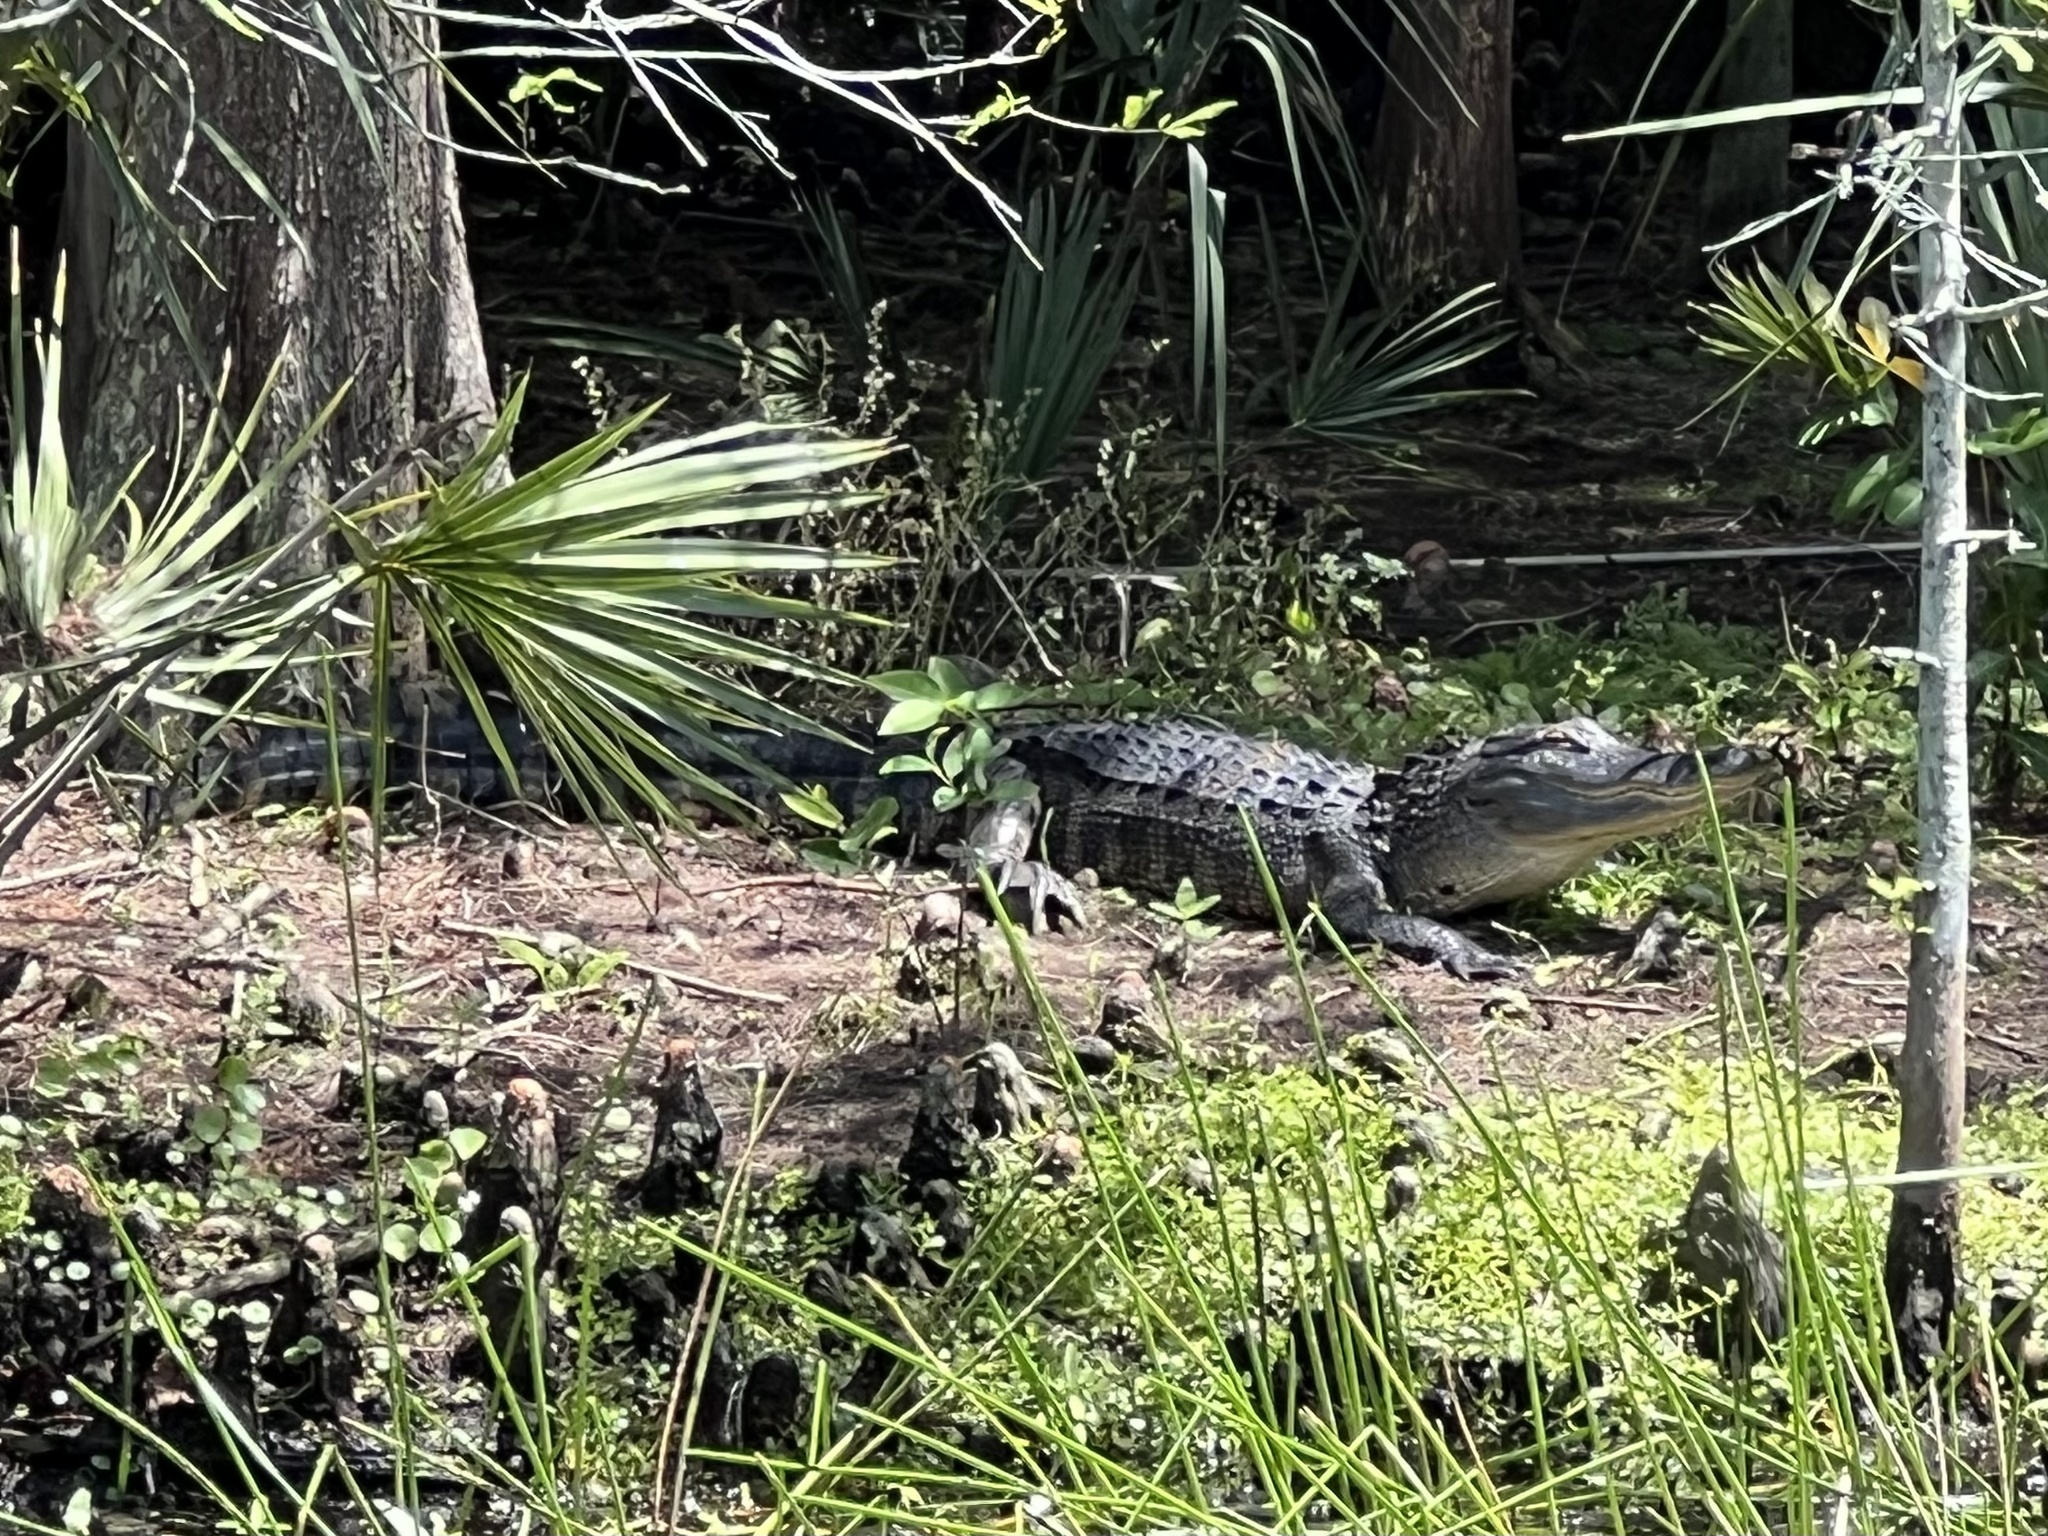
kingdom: Animalia
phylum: Chordata
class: Crocodylia
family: Alligatoridae
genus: Alligator
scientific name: Alligator mississippiensis
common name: American alligator
